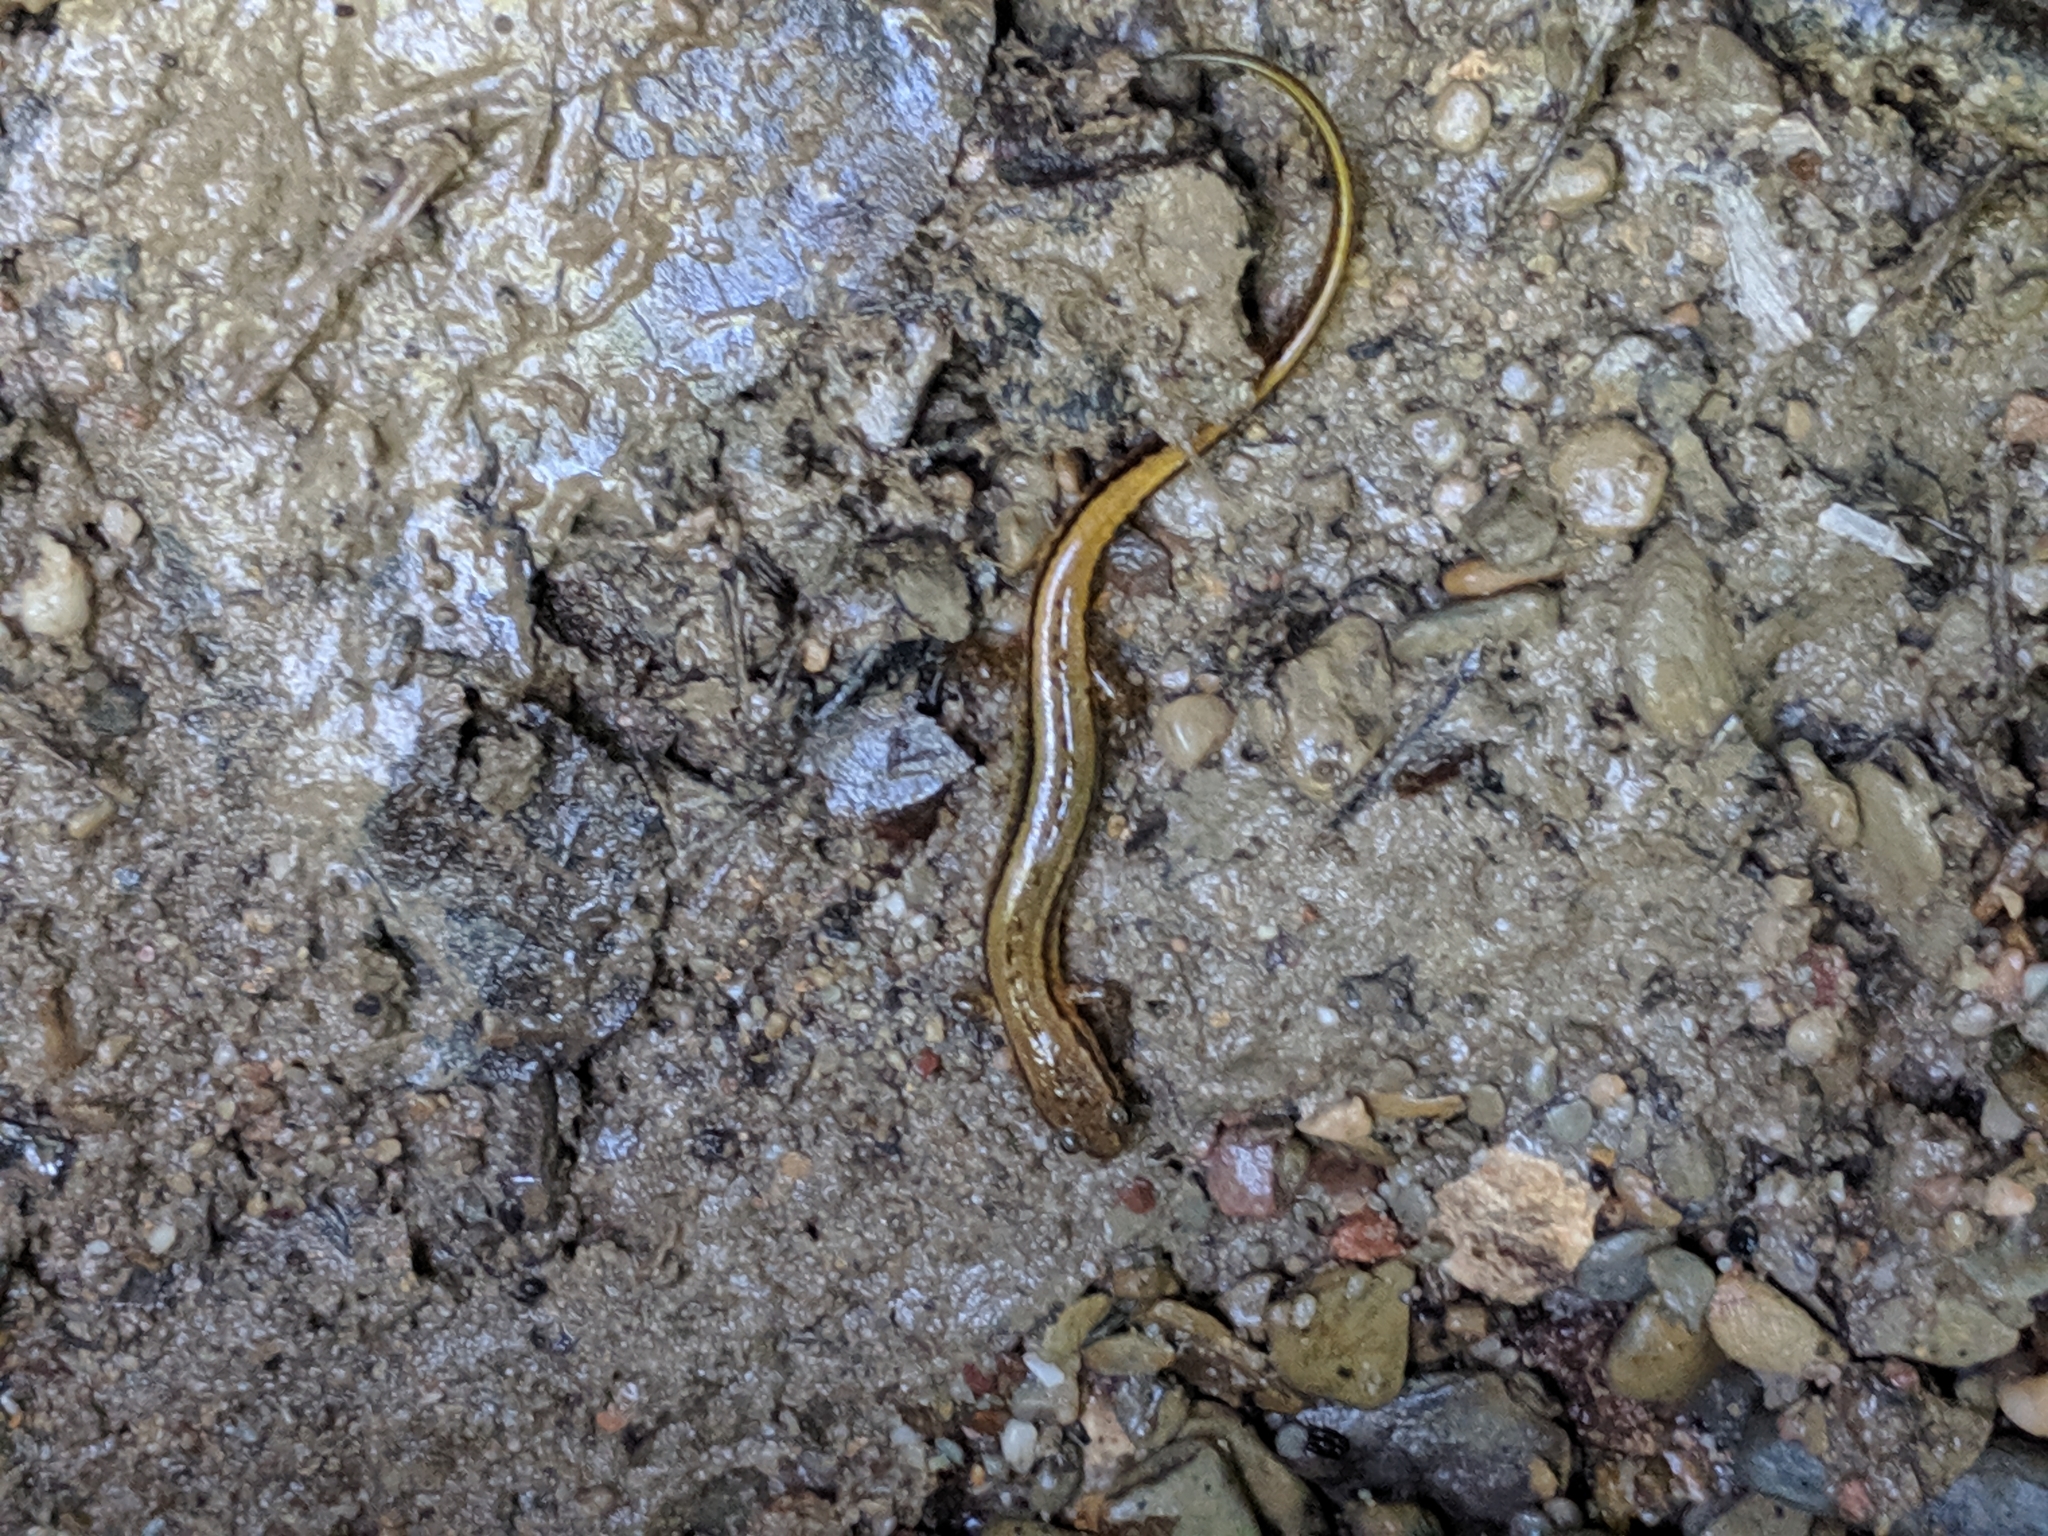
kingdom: Animalia
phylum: Chordata
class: Amphibia
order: Caudata
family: Plethodontidae
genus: Eurycea
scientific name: Eurycea cirrigera
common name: Southern two-lined salamander
